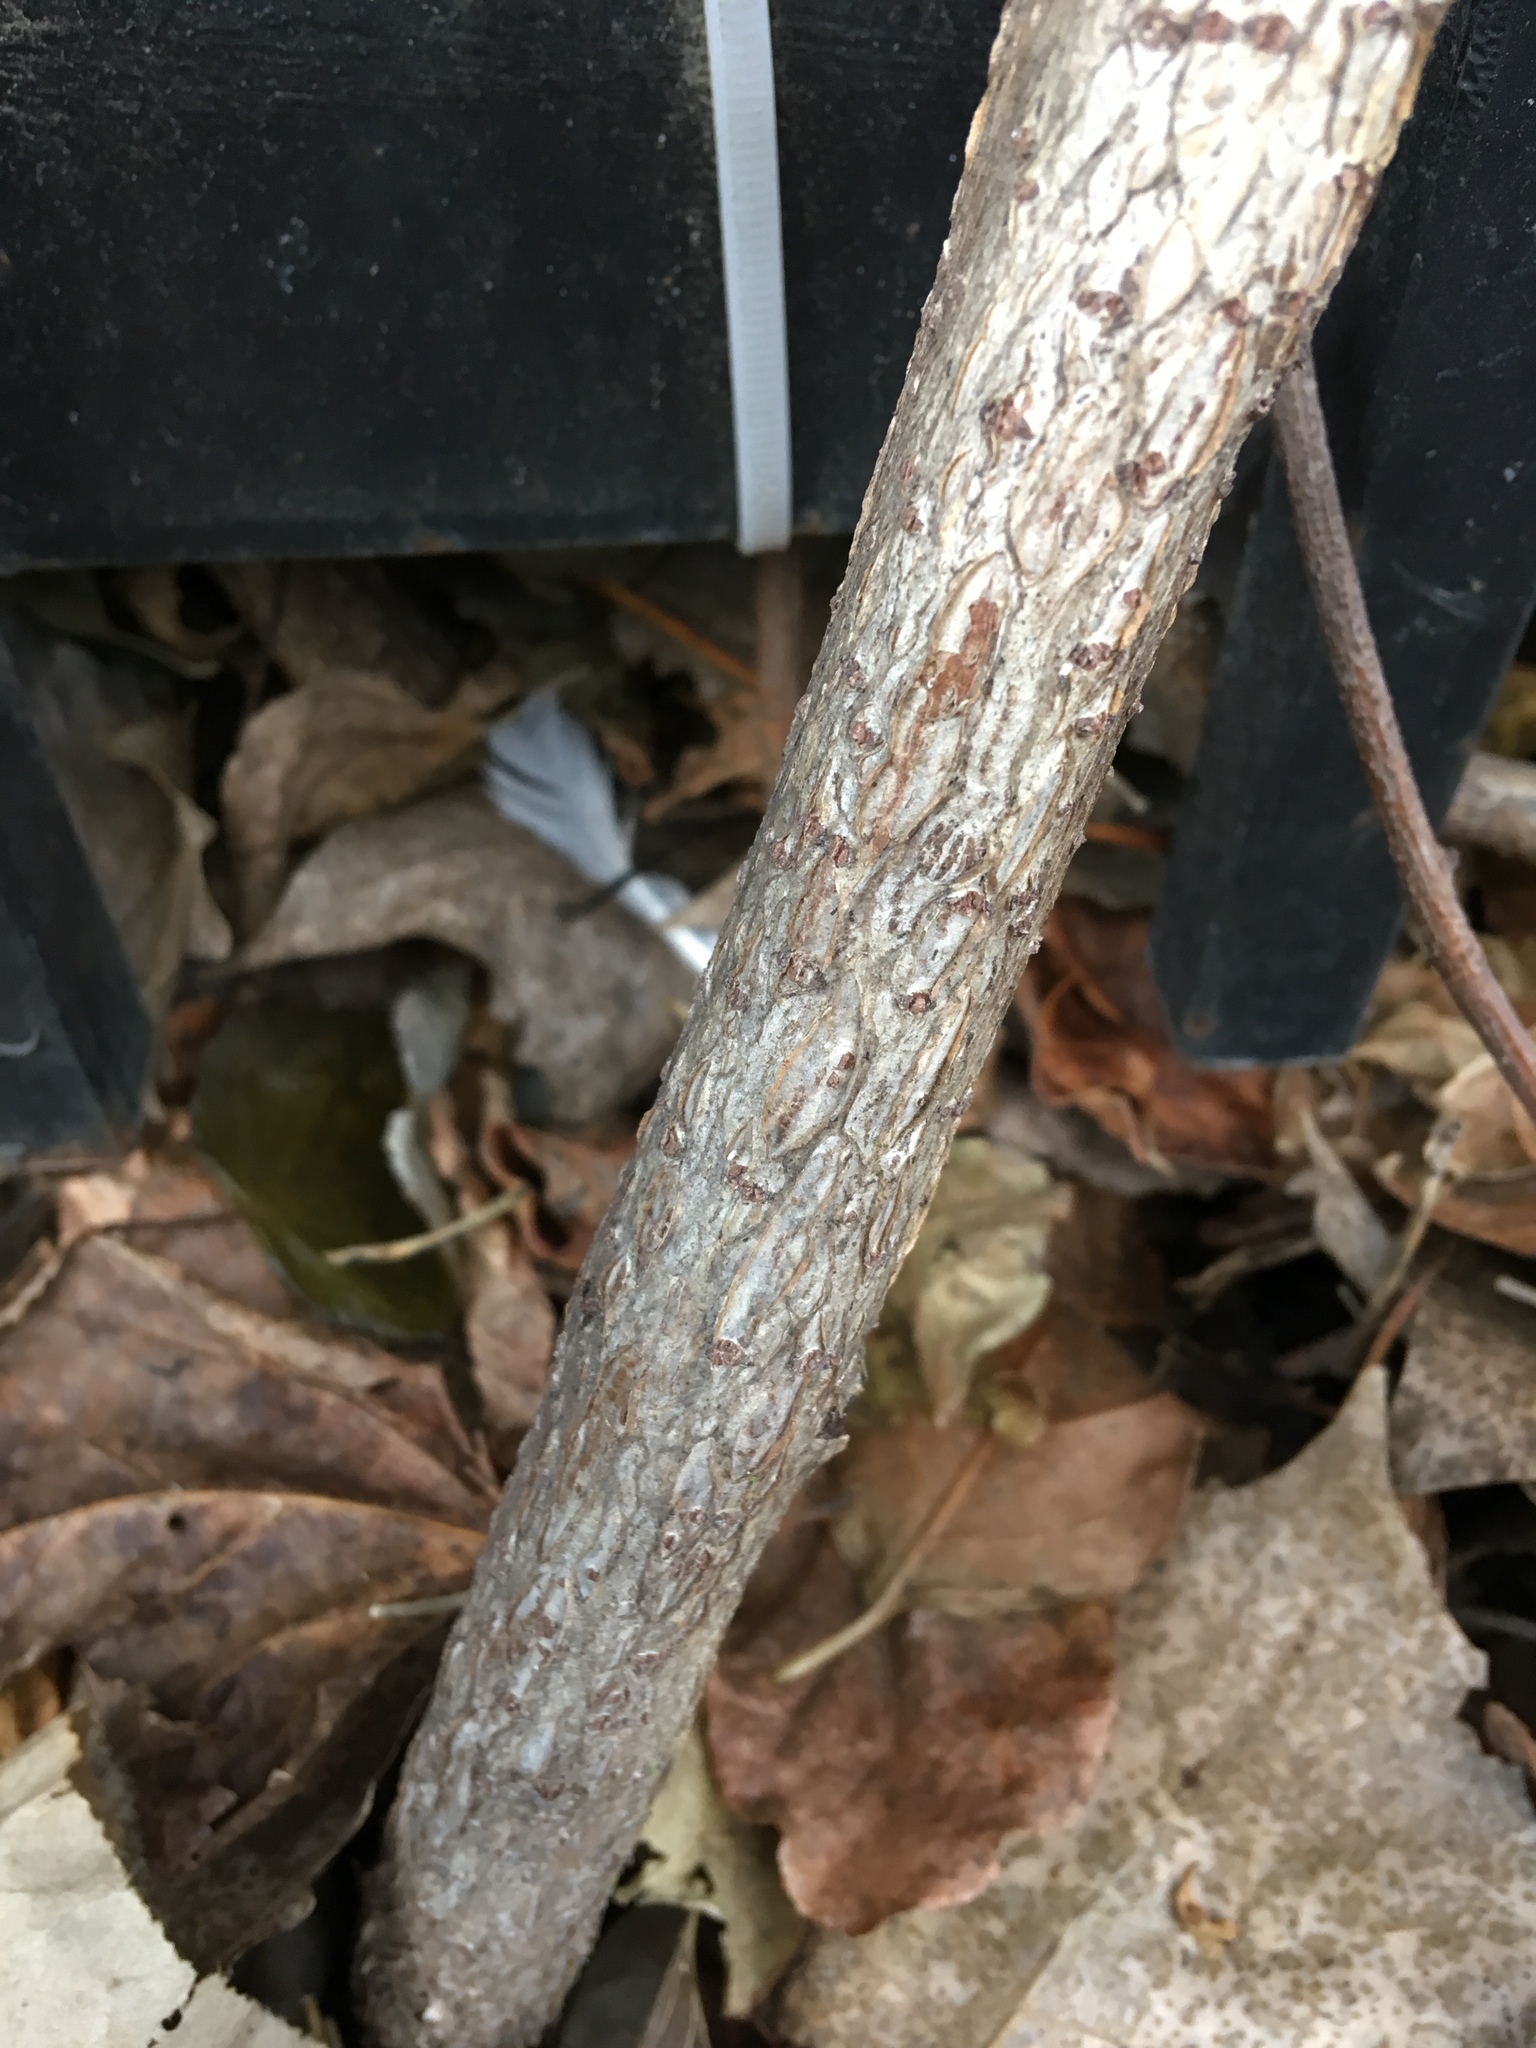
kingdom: Plantae
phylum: Tracheophyta
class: Magnoliopsida
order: Celastrales
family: Celastraceae
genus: Celastrus
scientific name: Celastrus orbiculatus
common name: Oriental bittersweet
